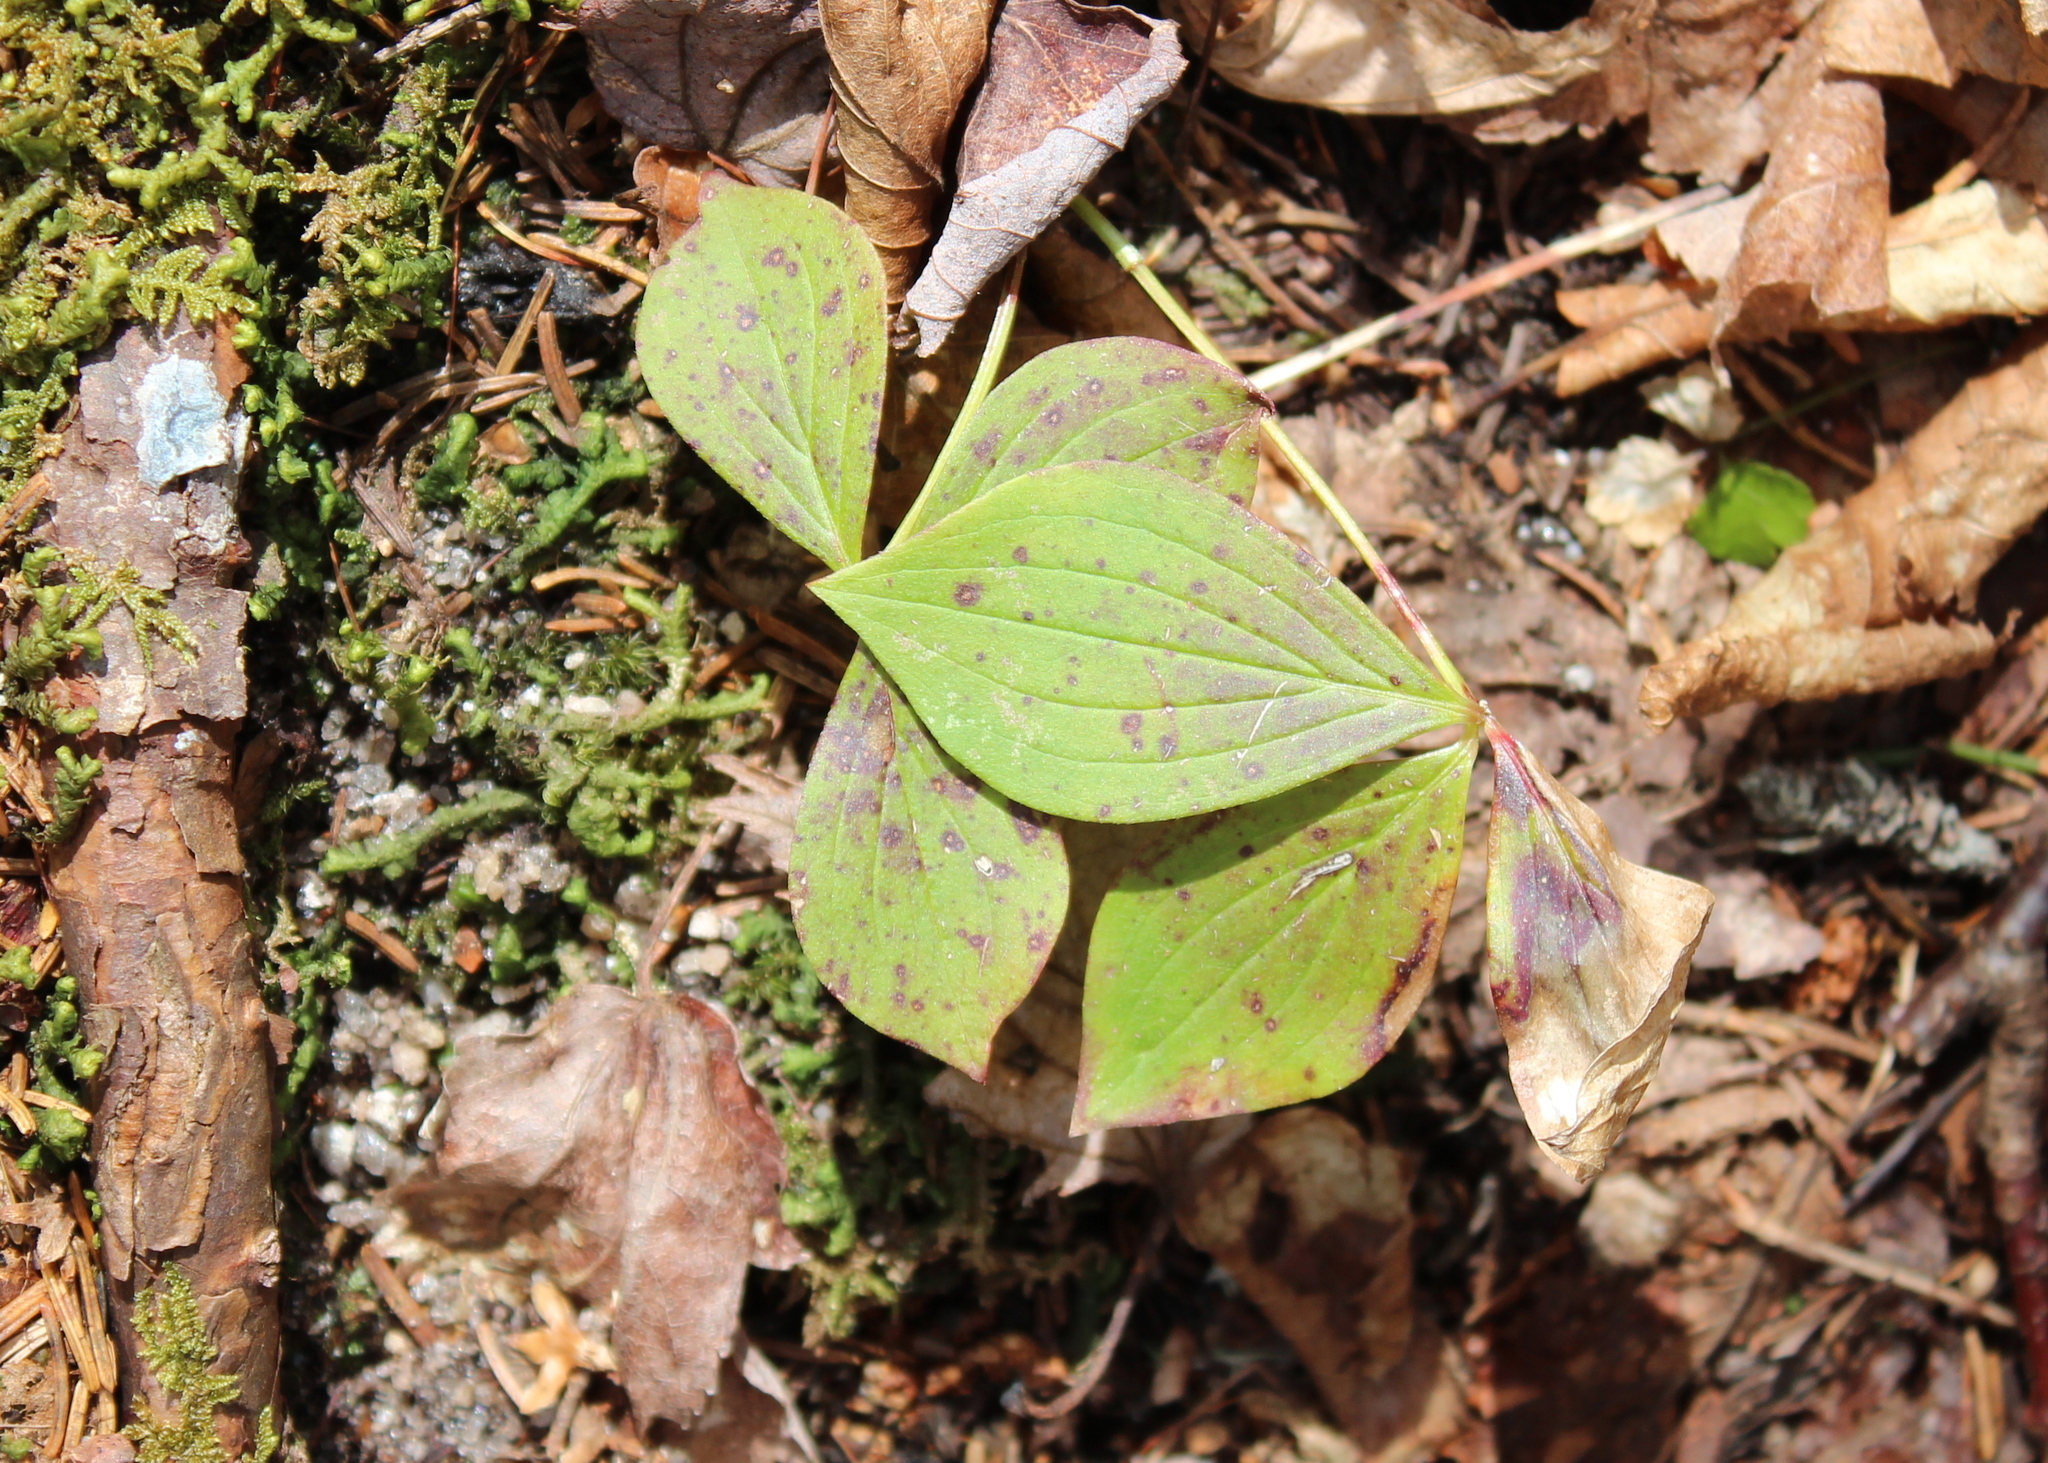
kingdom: Plantae
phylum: Tracheophyta
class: Magnoliopsida
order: Cornales
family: Cornaceae
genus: Cornus
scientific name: Cornus canadensis
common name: Creeping dogwood
